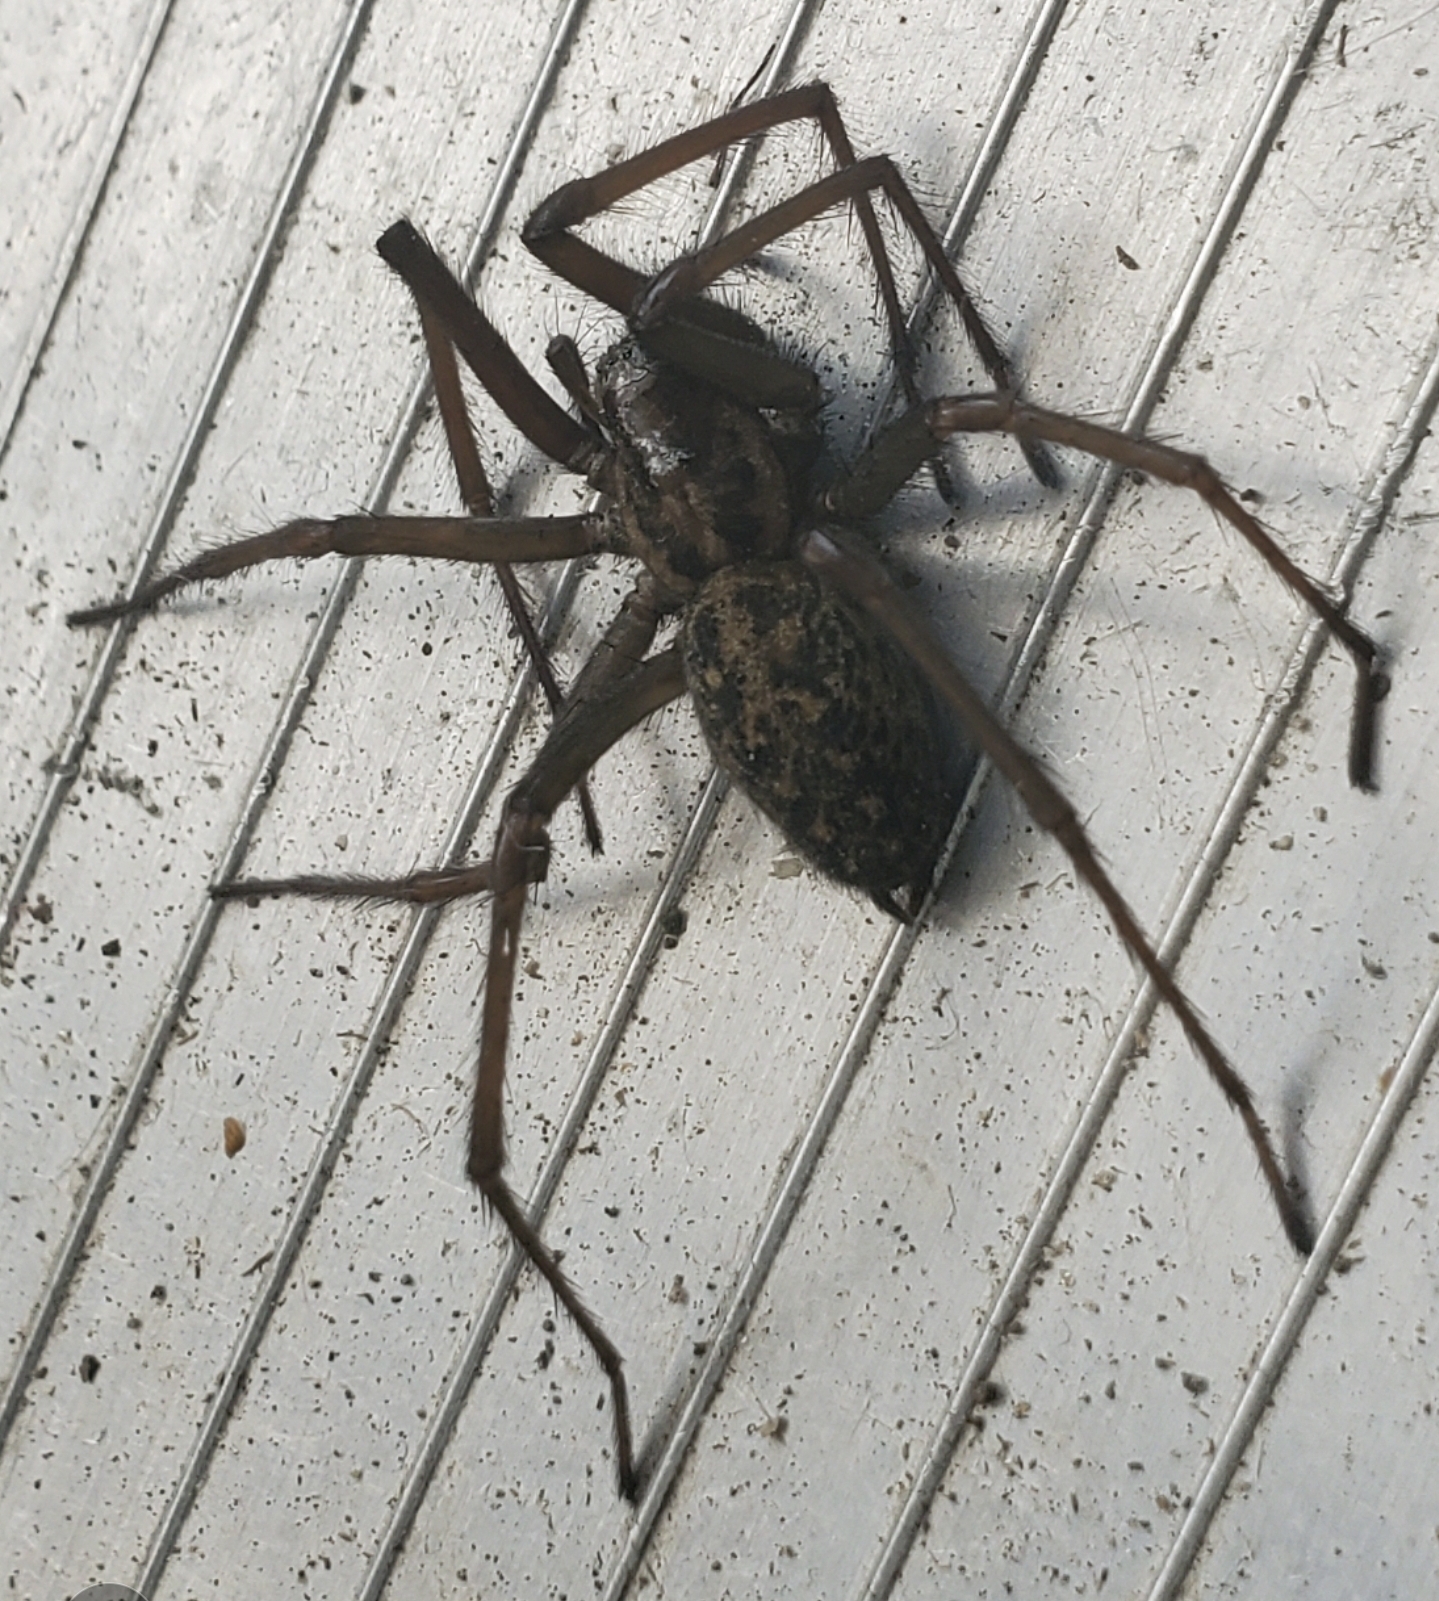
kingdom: Animalia
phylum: Arthropoda
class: Arachnida
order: Araneae
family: Agelenidae
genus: Eratigena
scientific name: Eratigena duellica
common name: Giant house spider
